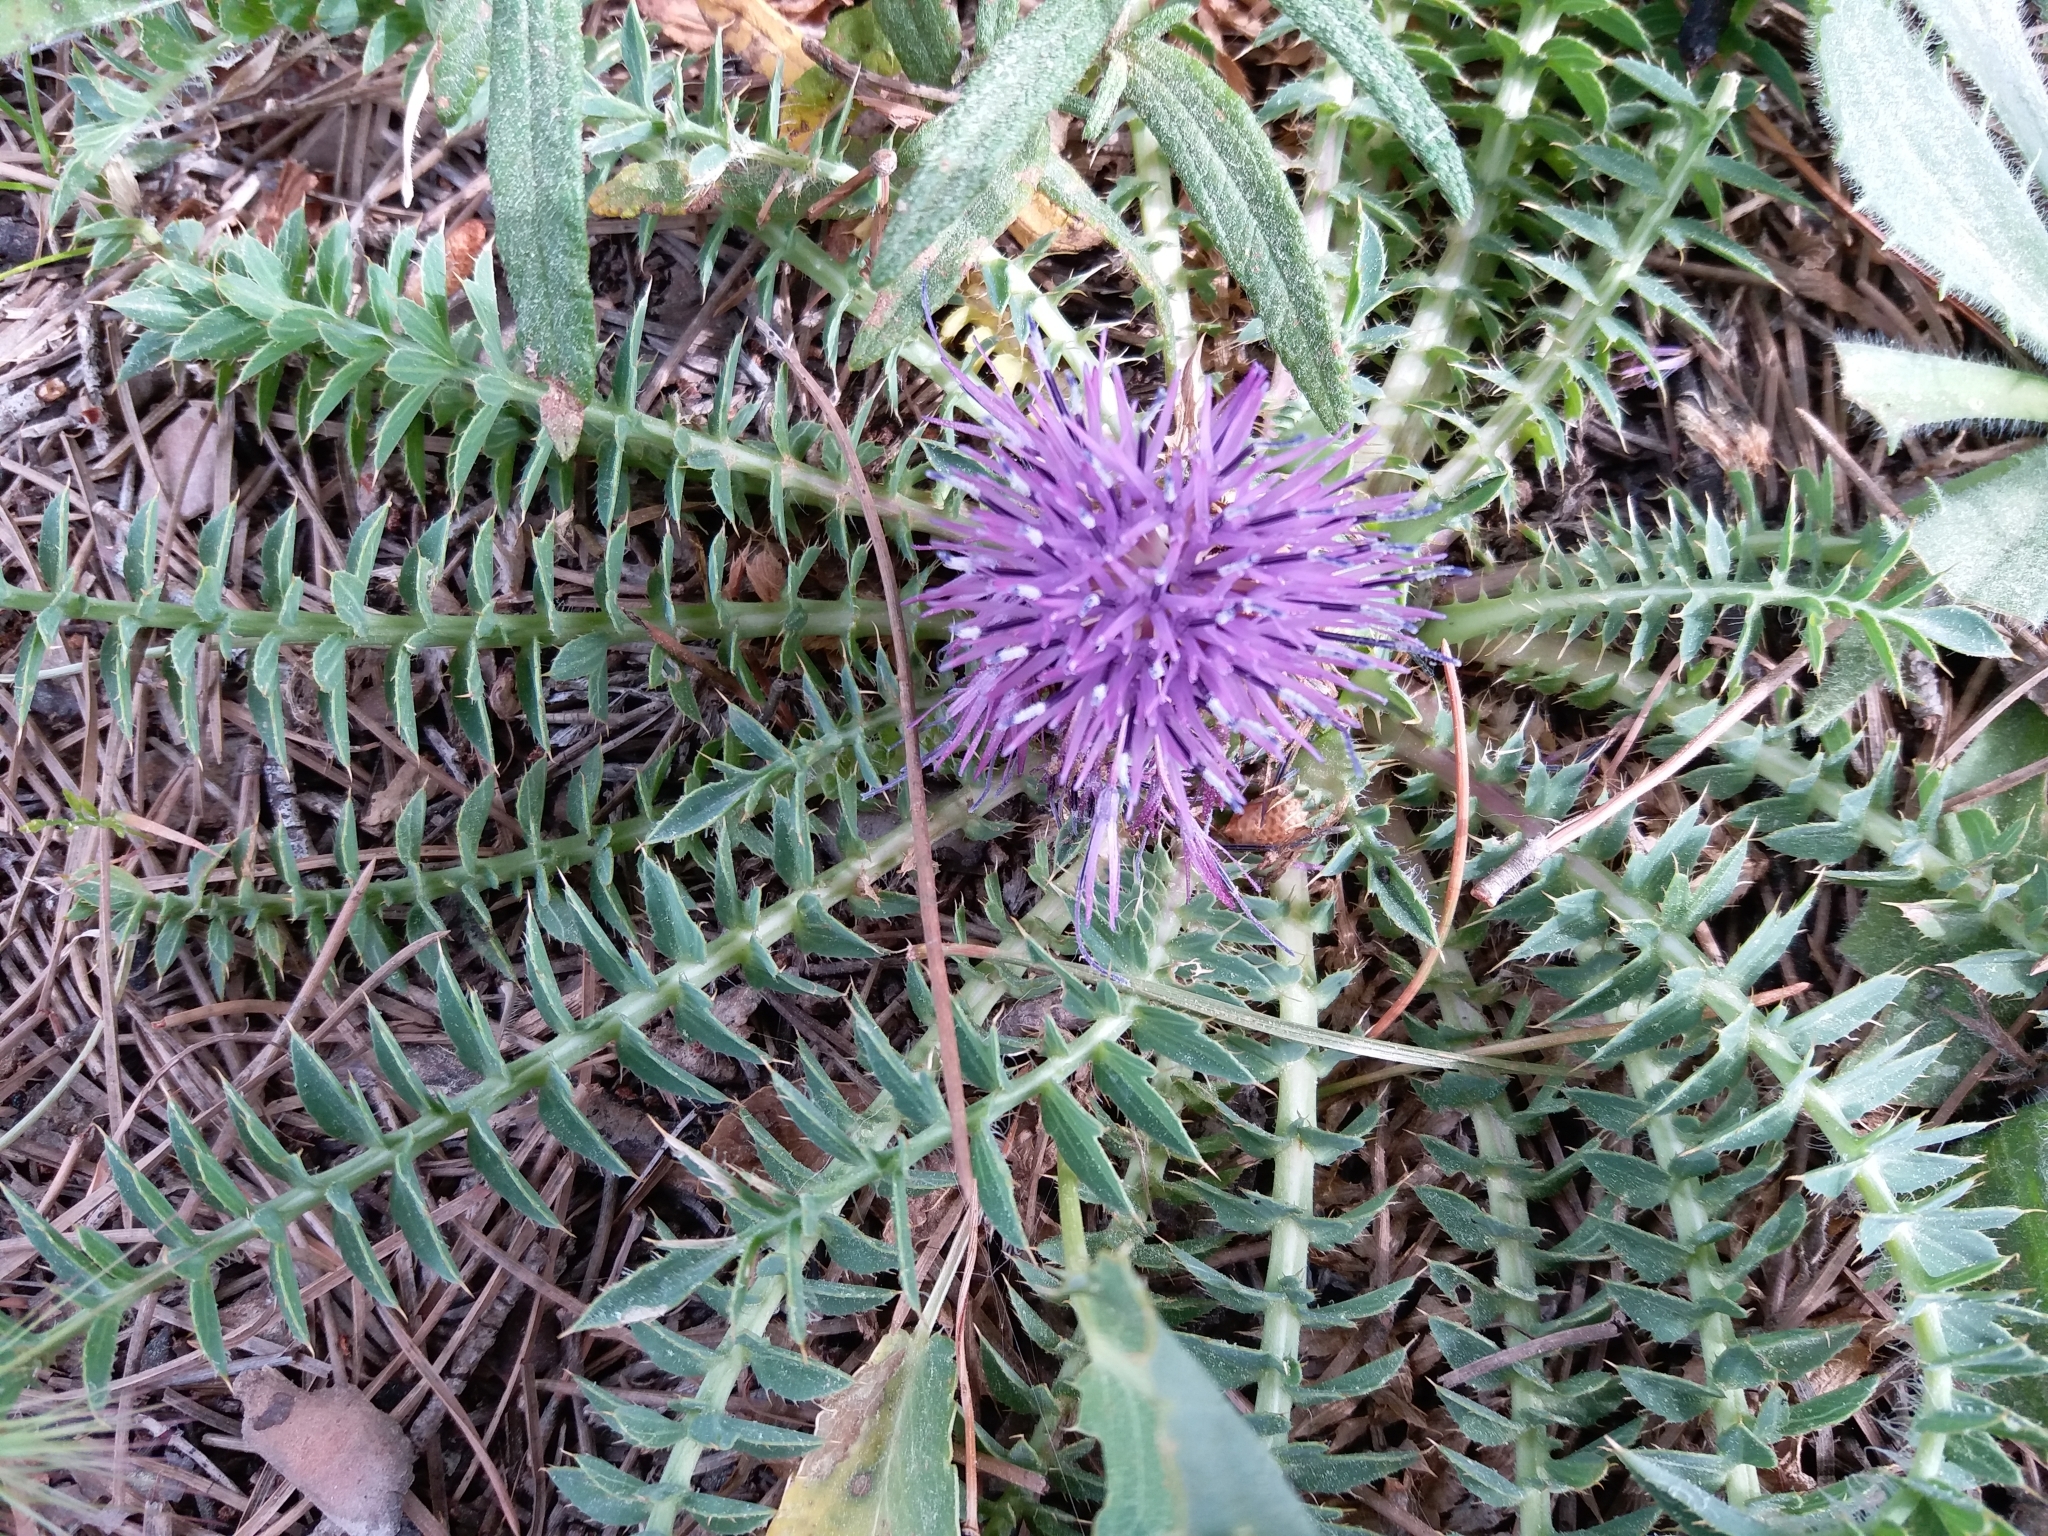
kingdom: Plantae
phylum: Tracheophyta
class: Magnoliopsida
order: Asterales
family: Asteraceae
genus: Carduncellus
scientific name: Carduncellus
